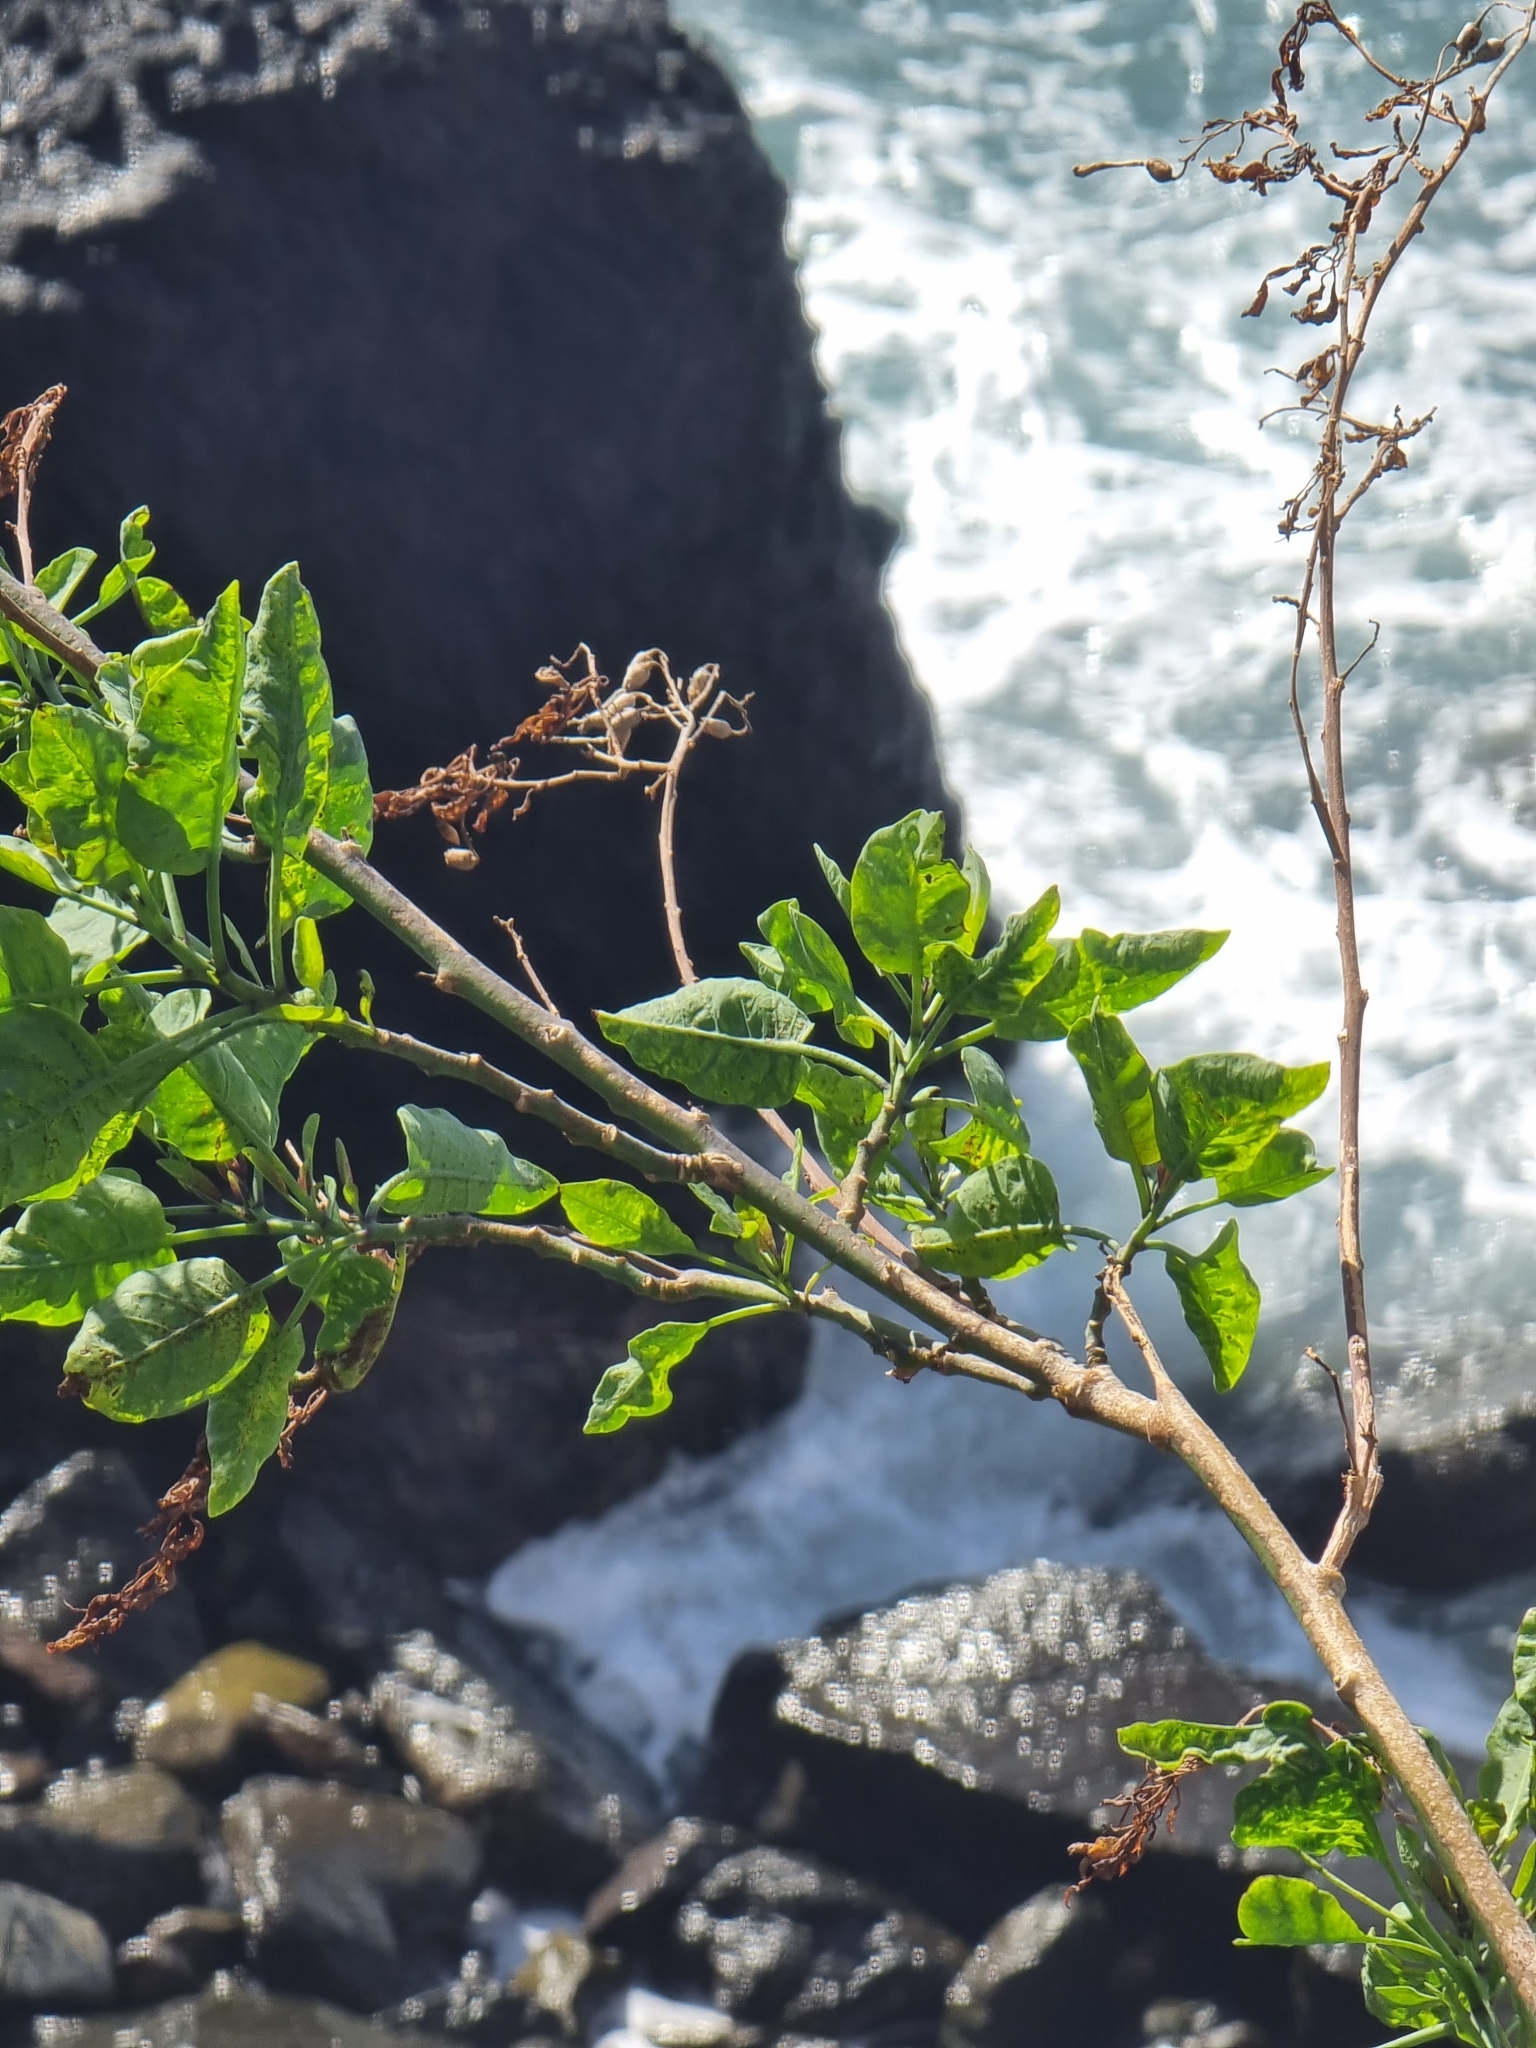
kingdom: Plantae
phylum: Tracheophyta
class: Magnoliopsida
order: Solanales
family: Solanaceae
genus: Nicotiana
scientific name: Nicotiana glauca
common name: Tree tobacco
